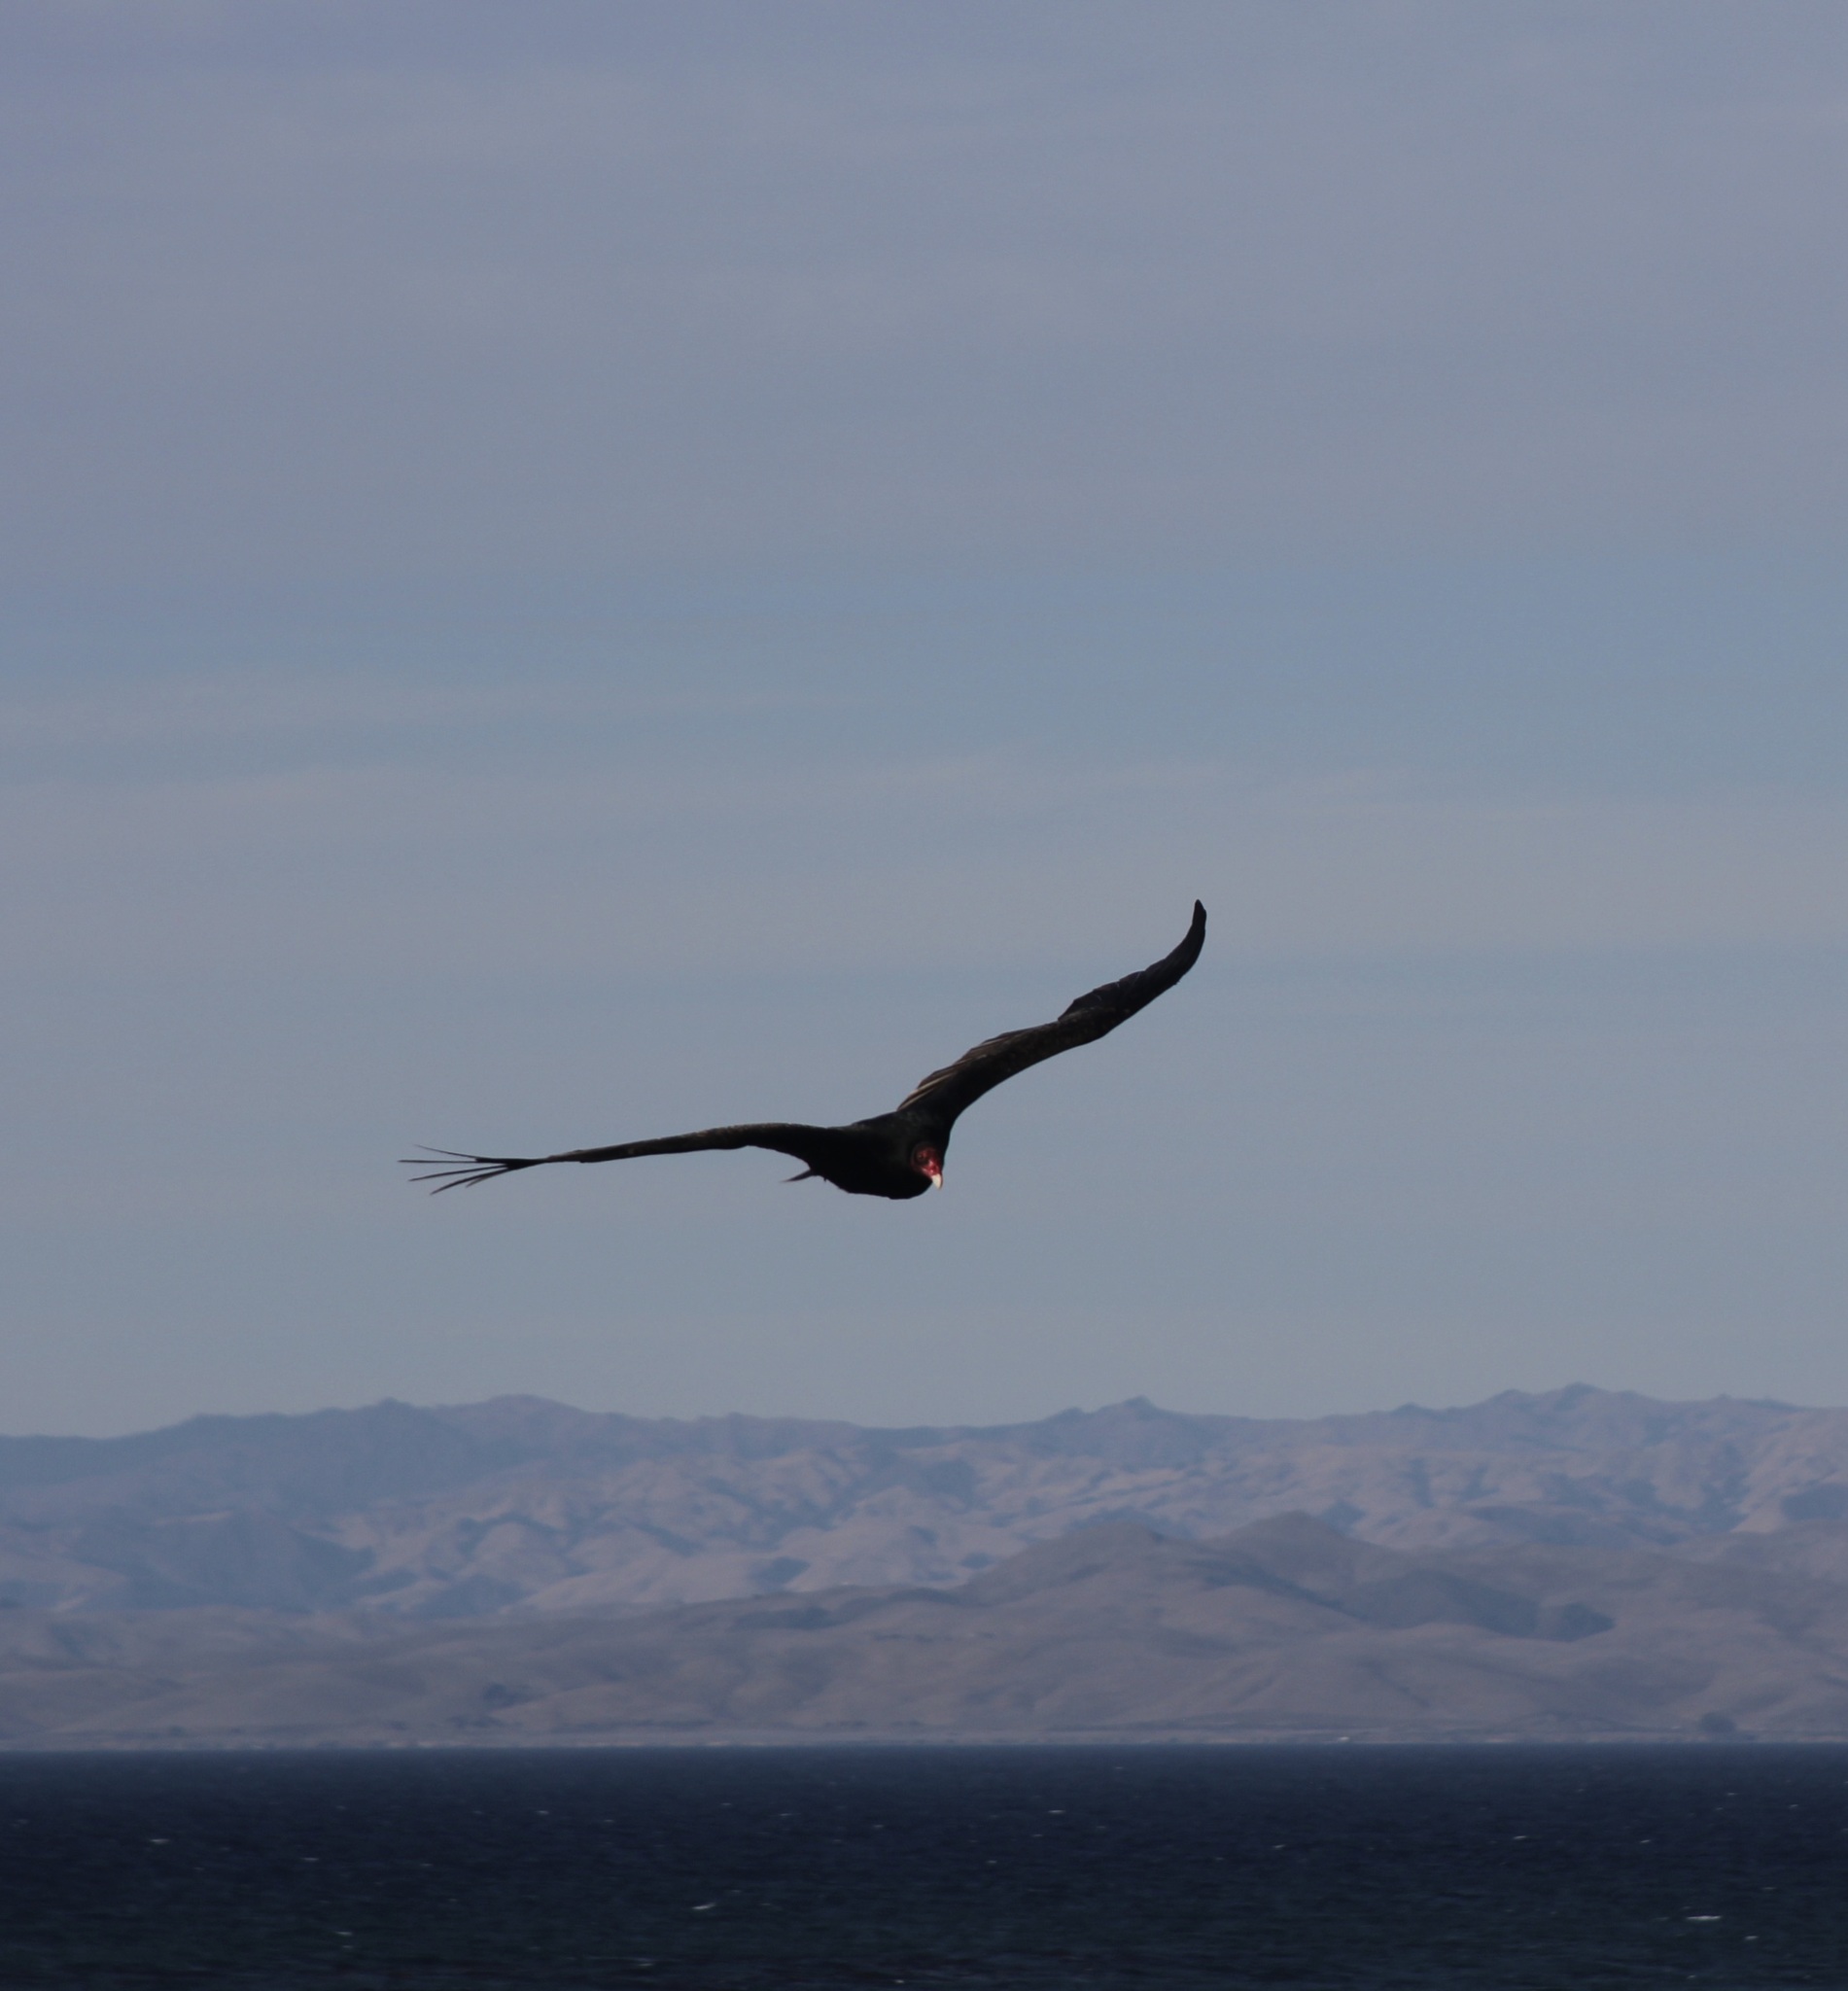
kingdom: Animalia
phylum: Chordata
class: Aves
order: Accipitriformes
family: Cathartidae
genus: Cathartes
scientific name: Cathartes aura
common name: Turkey vulture
